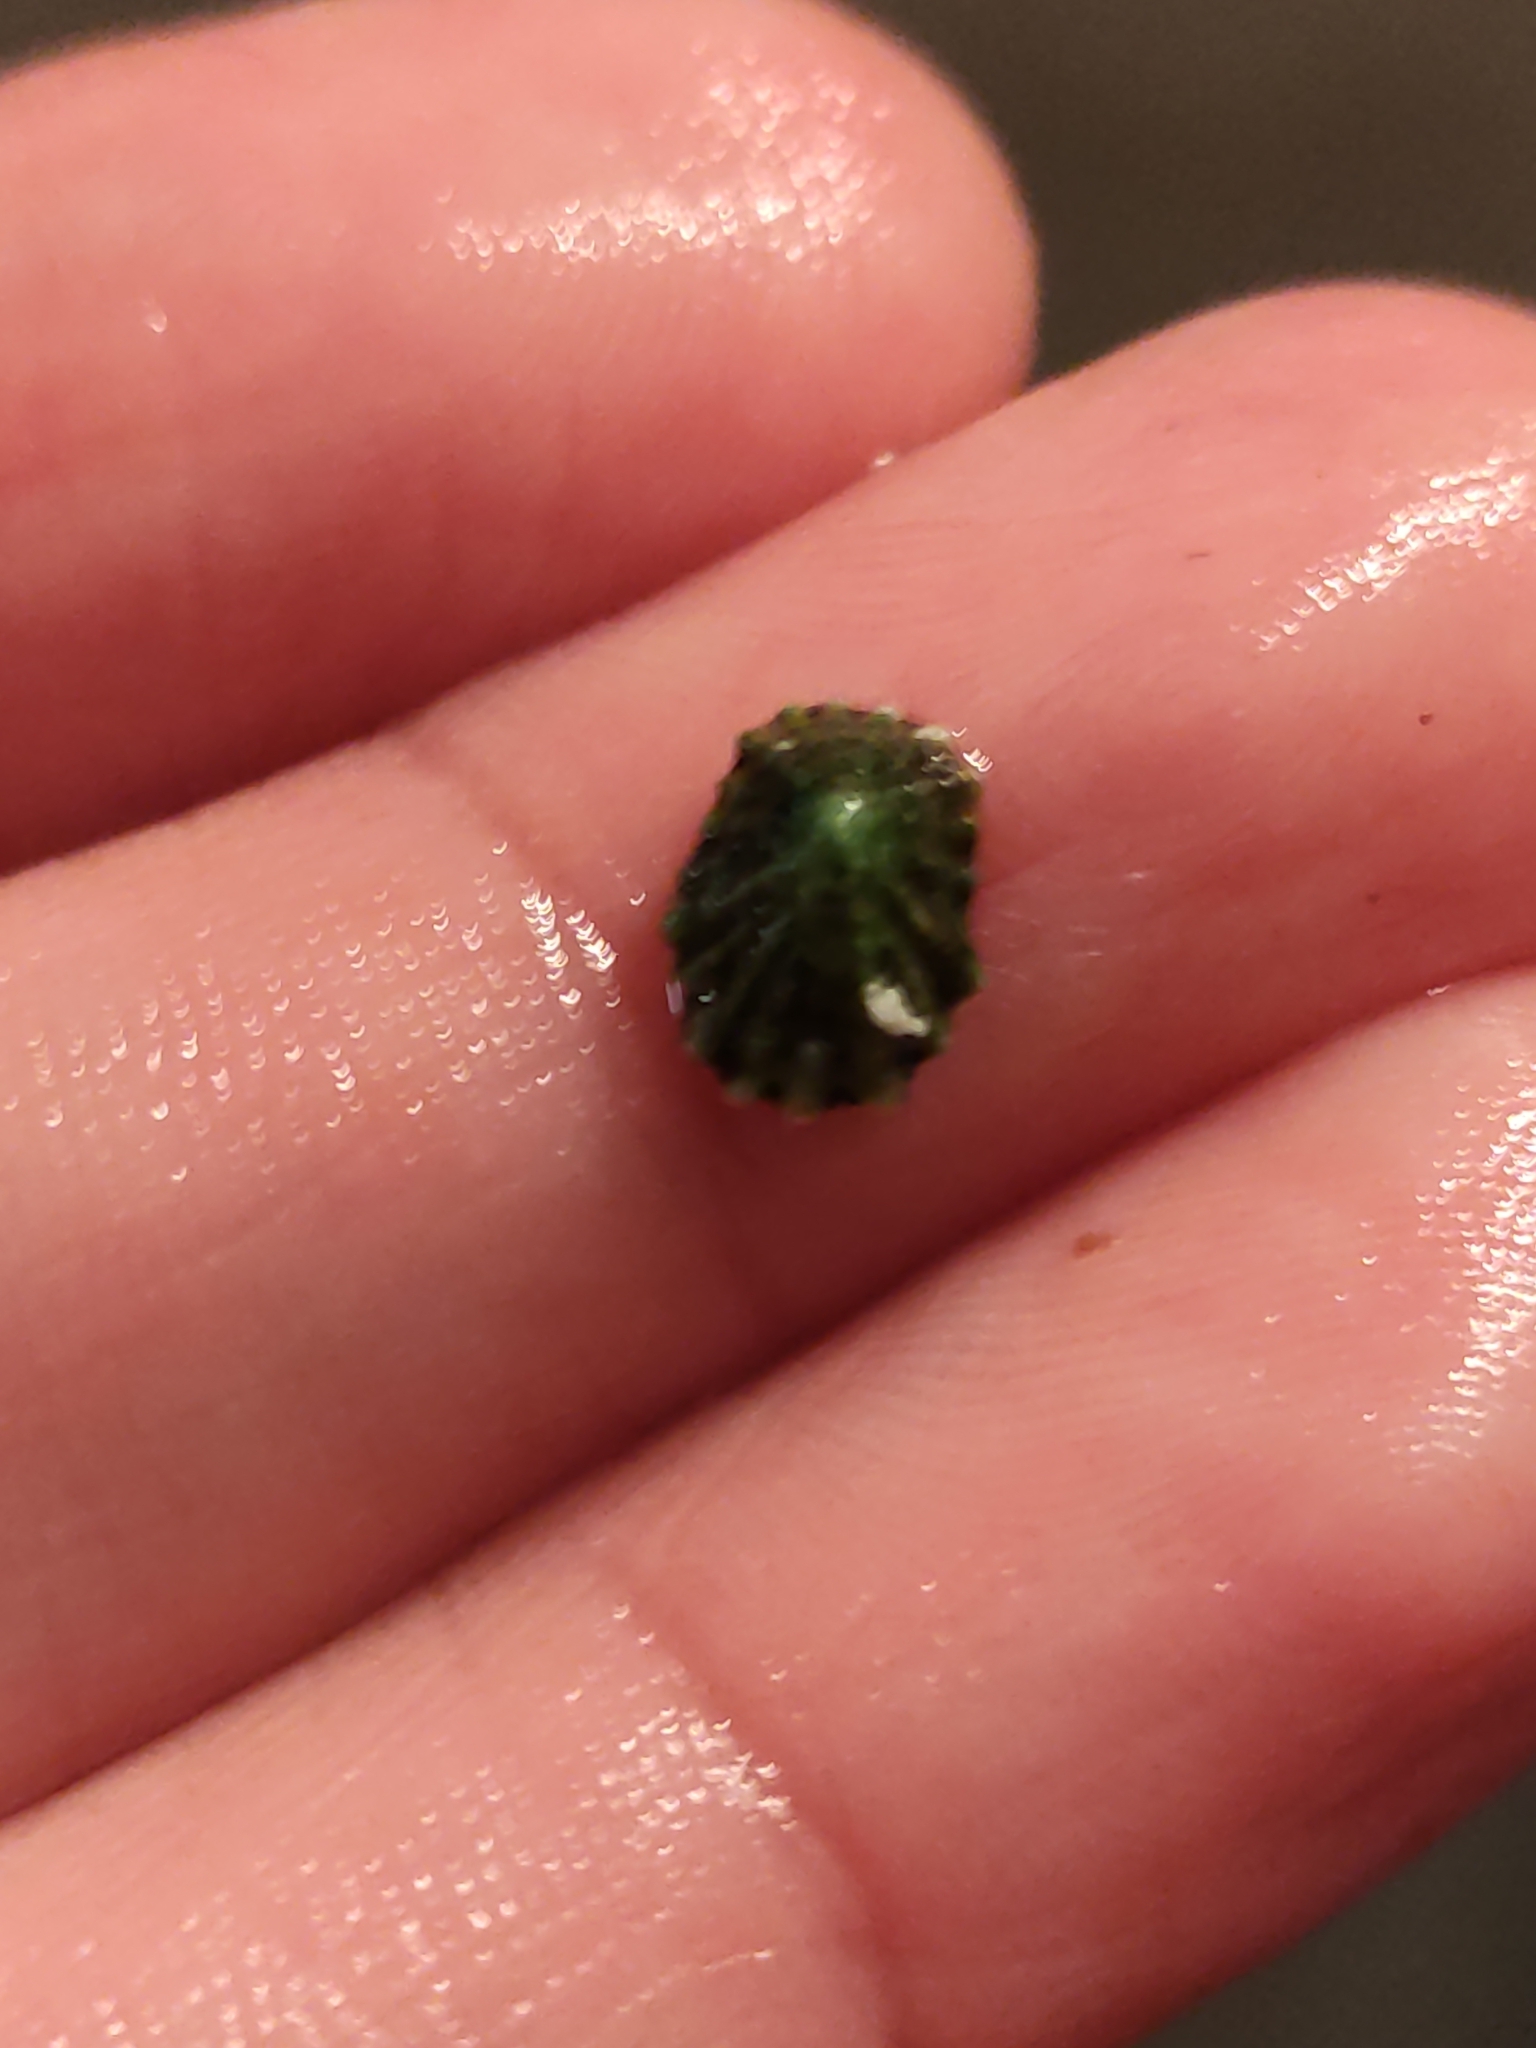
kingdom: Animalia
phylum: Mollusca
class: Gastropoda
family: Lottiidae
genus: Patelloida
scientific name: Patelloida corticata
